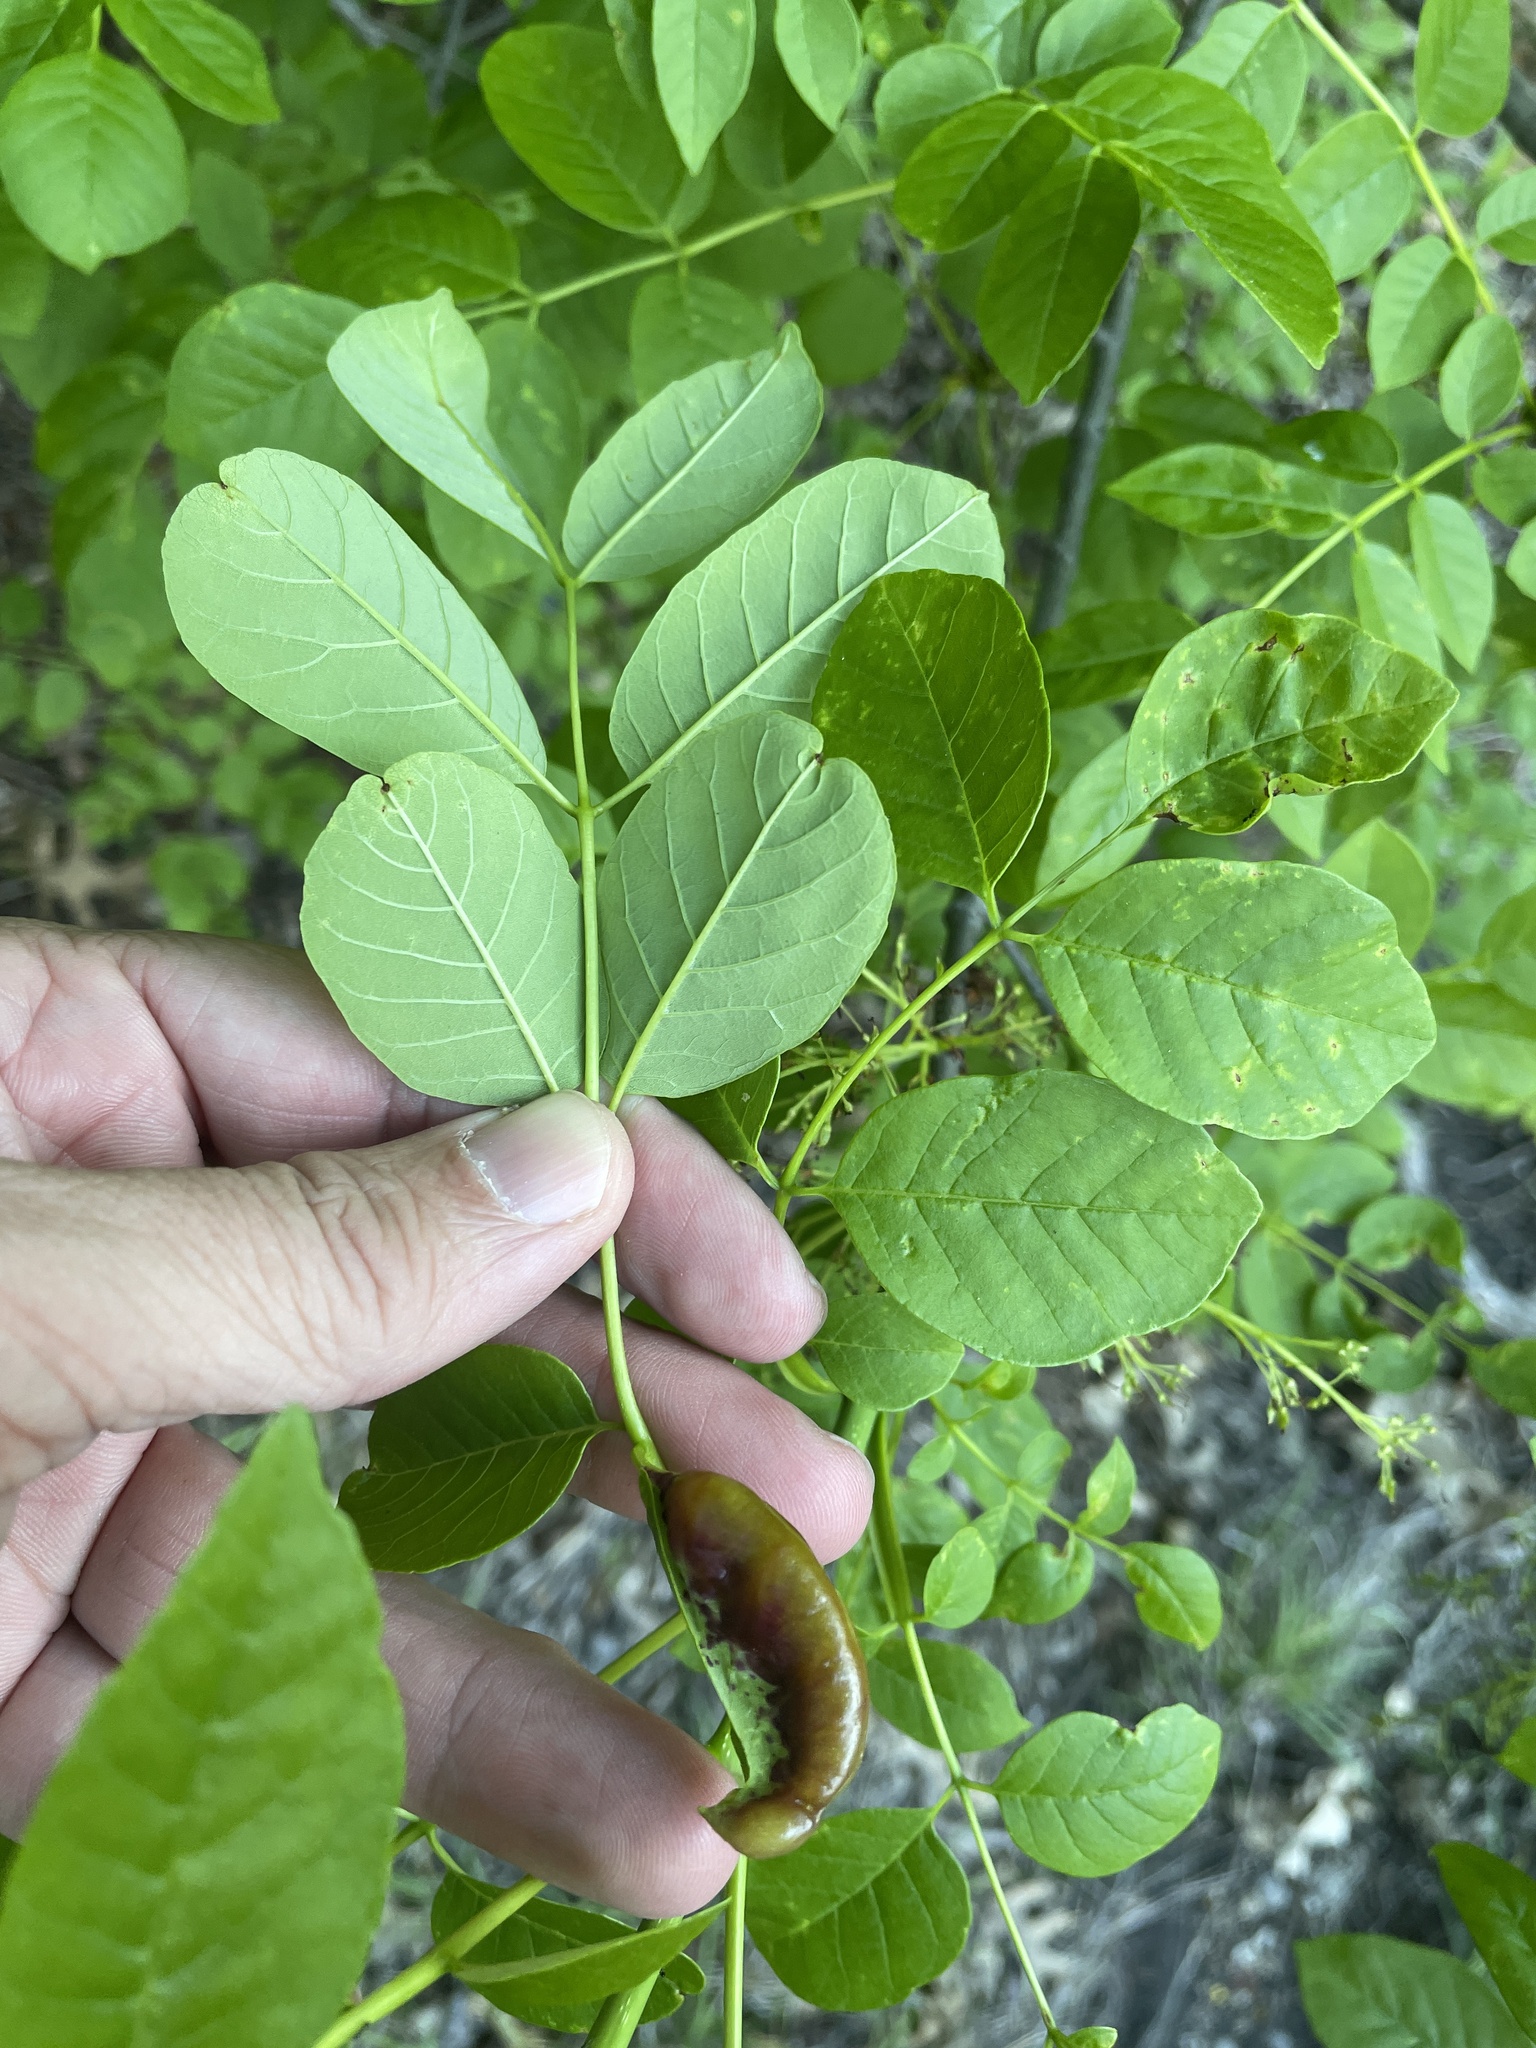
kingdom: Animalia
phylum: Arthropoda
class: Insecta
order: Diptera
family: Cecidomyiidae
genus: Dasineura
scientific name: Dasineura tumidosae
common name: Ash petiole gall midge
